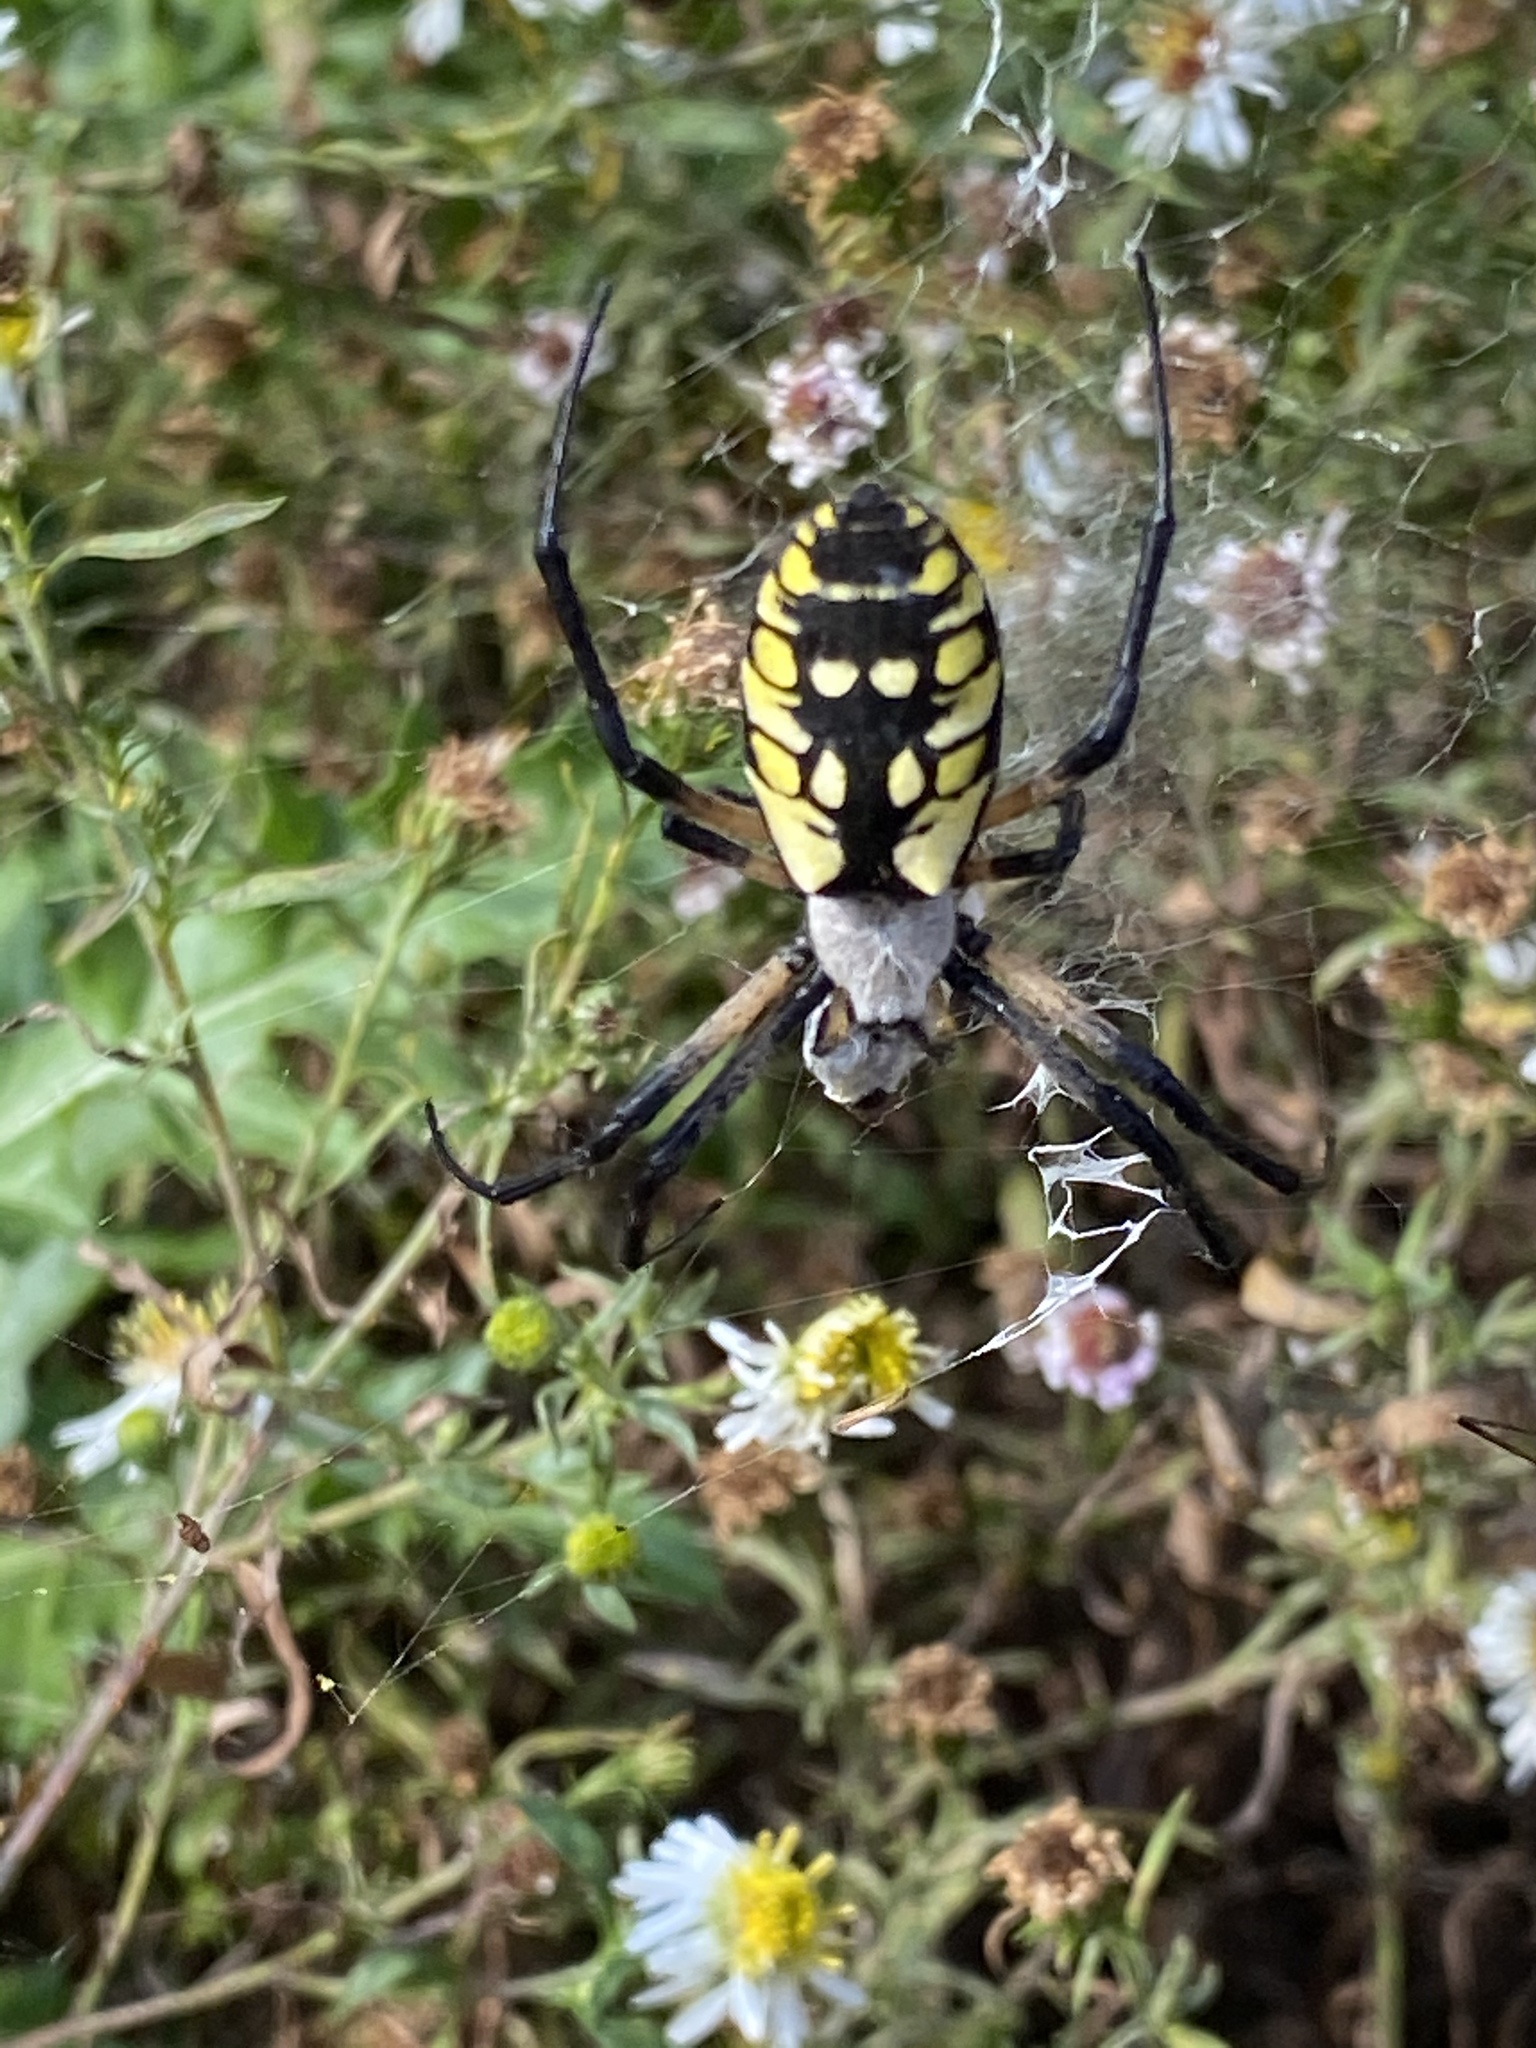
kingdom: Animalia
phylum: Arthropoda
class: Arachnida
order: Araneae
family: Araneidae
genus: Argiope
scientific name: Argiope aurantia
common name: Orb weavers
